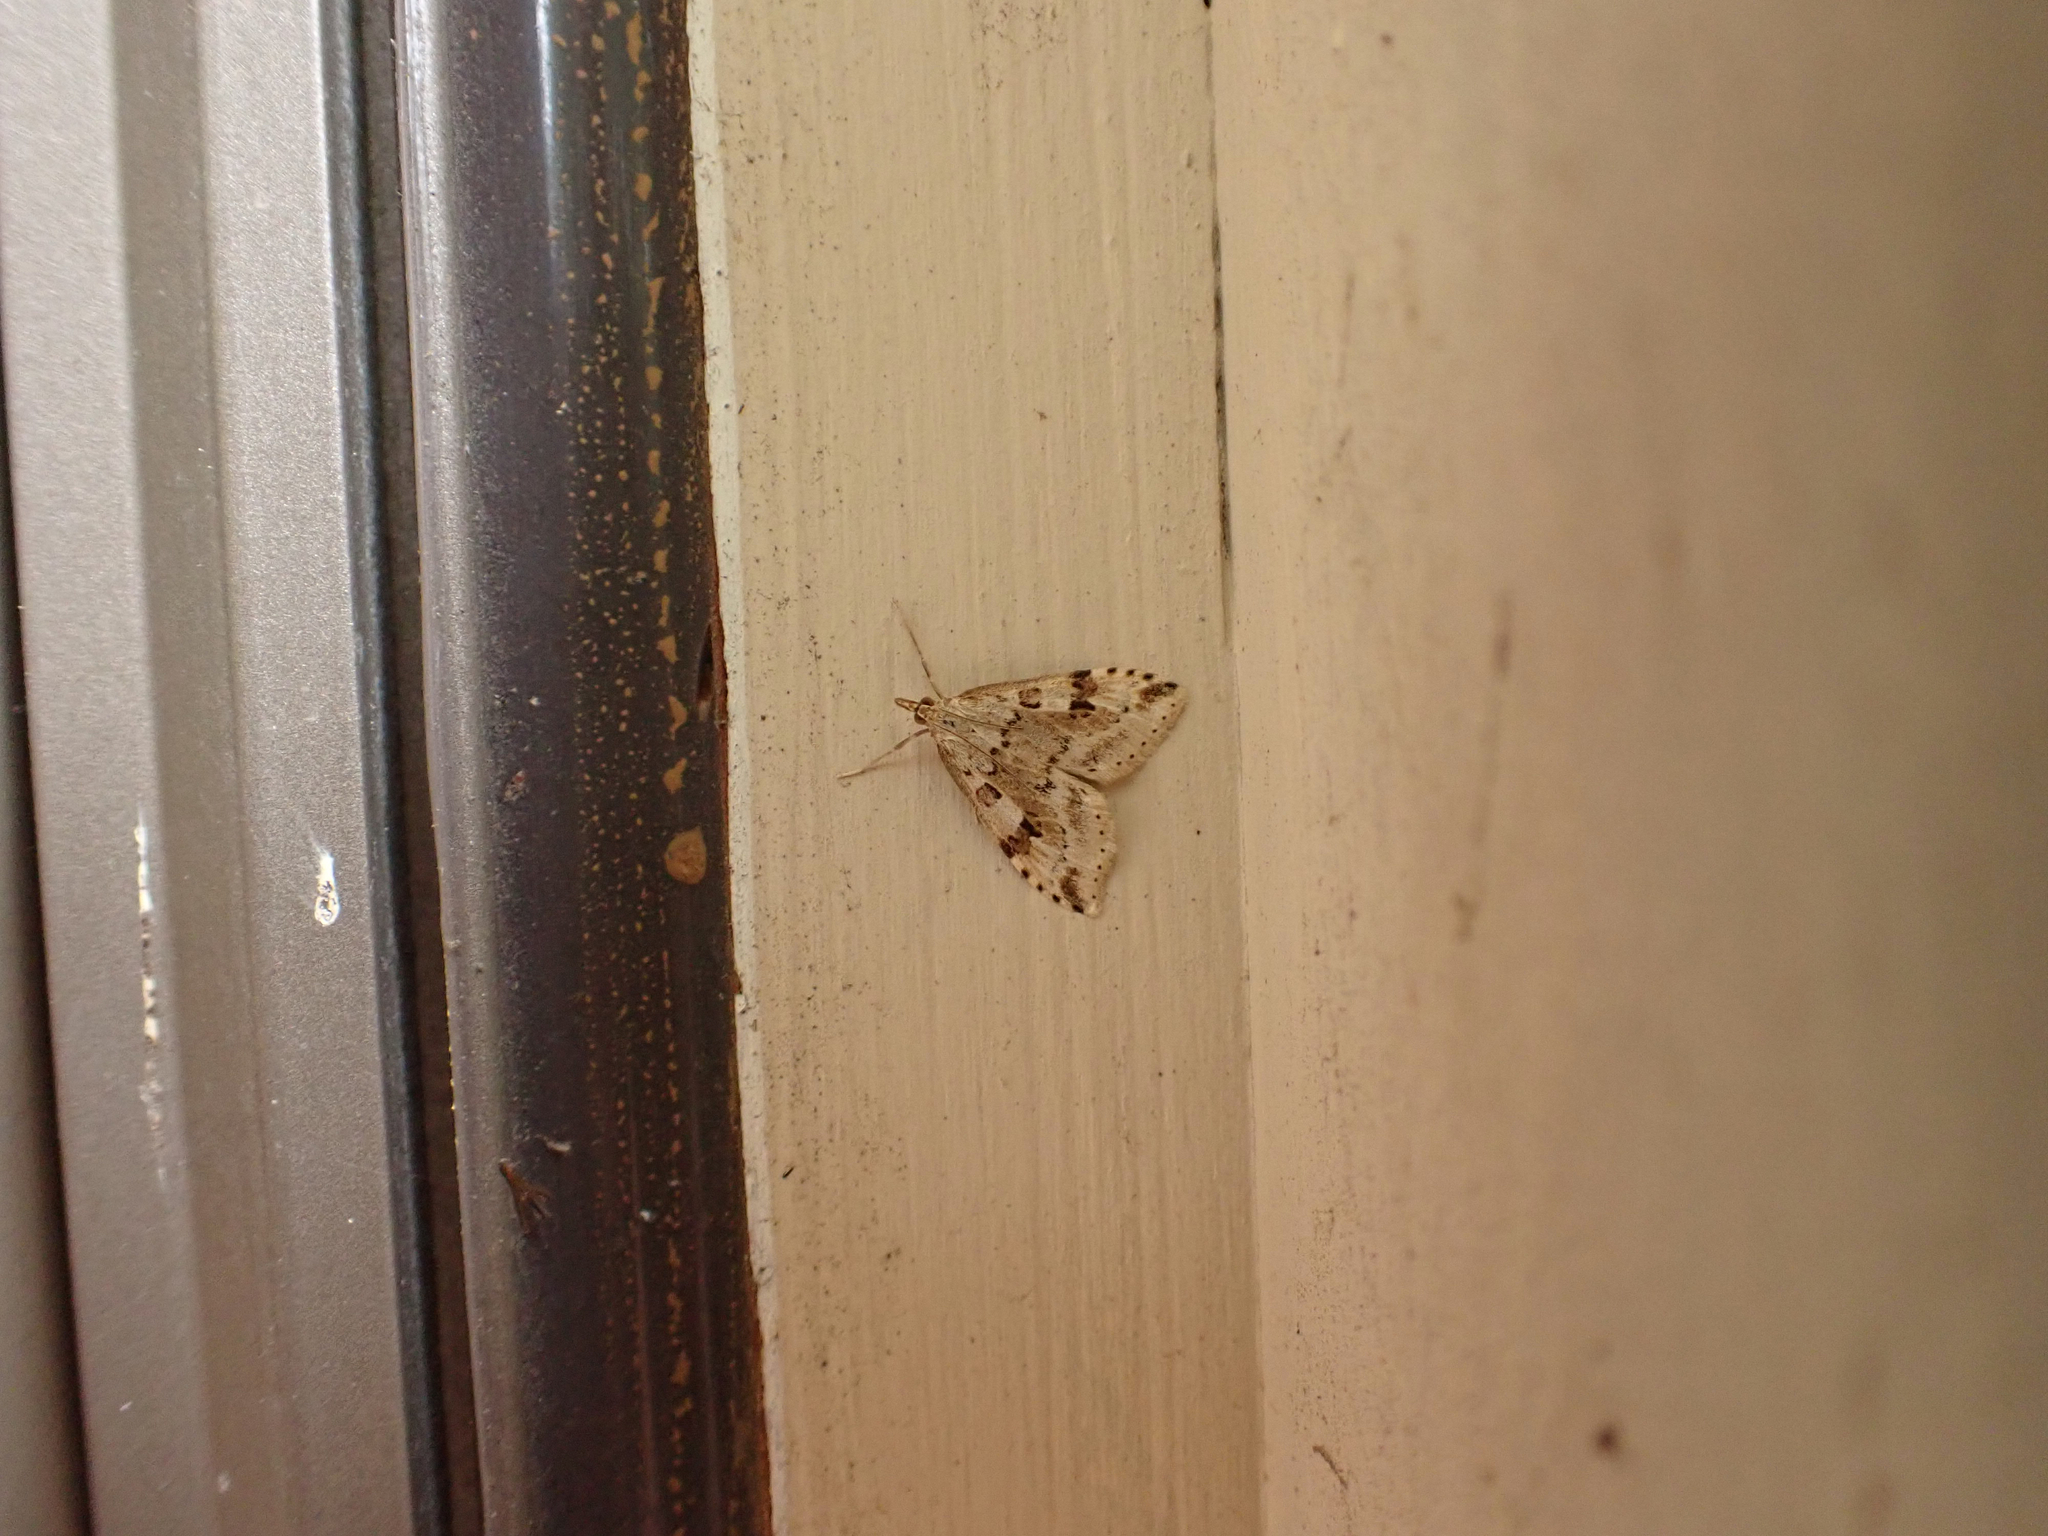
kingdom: Animalia
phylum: Arthropoda
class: Insecta
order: Lepidoptera
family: Crambidae
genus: Udea
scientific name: Udea washingtonalis
